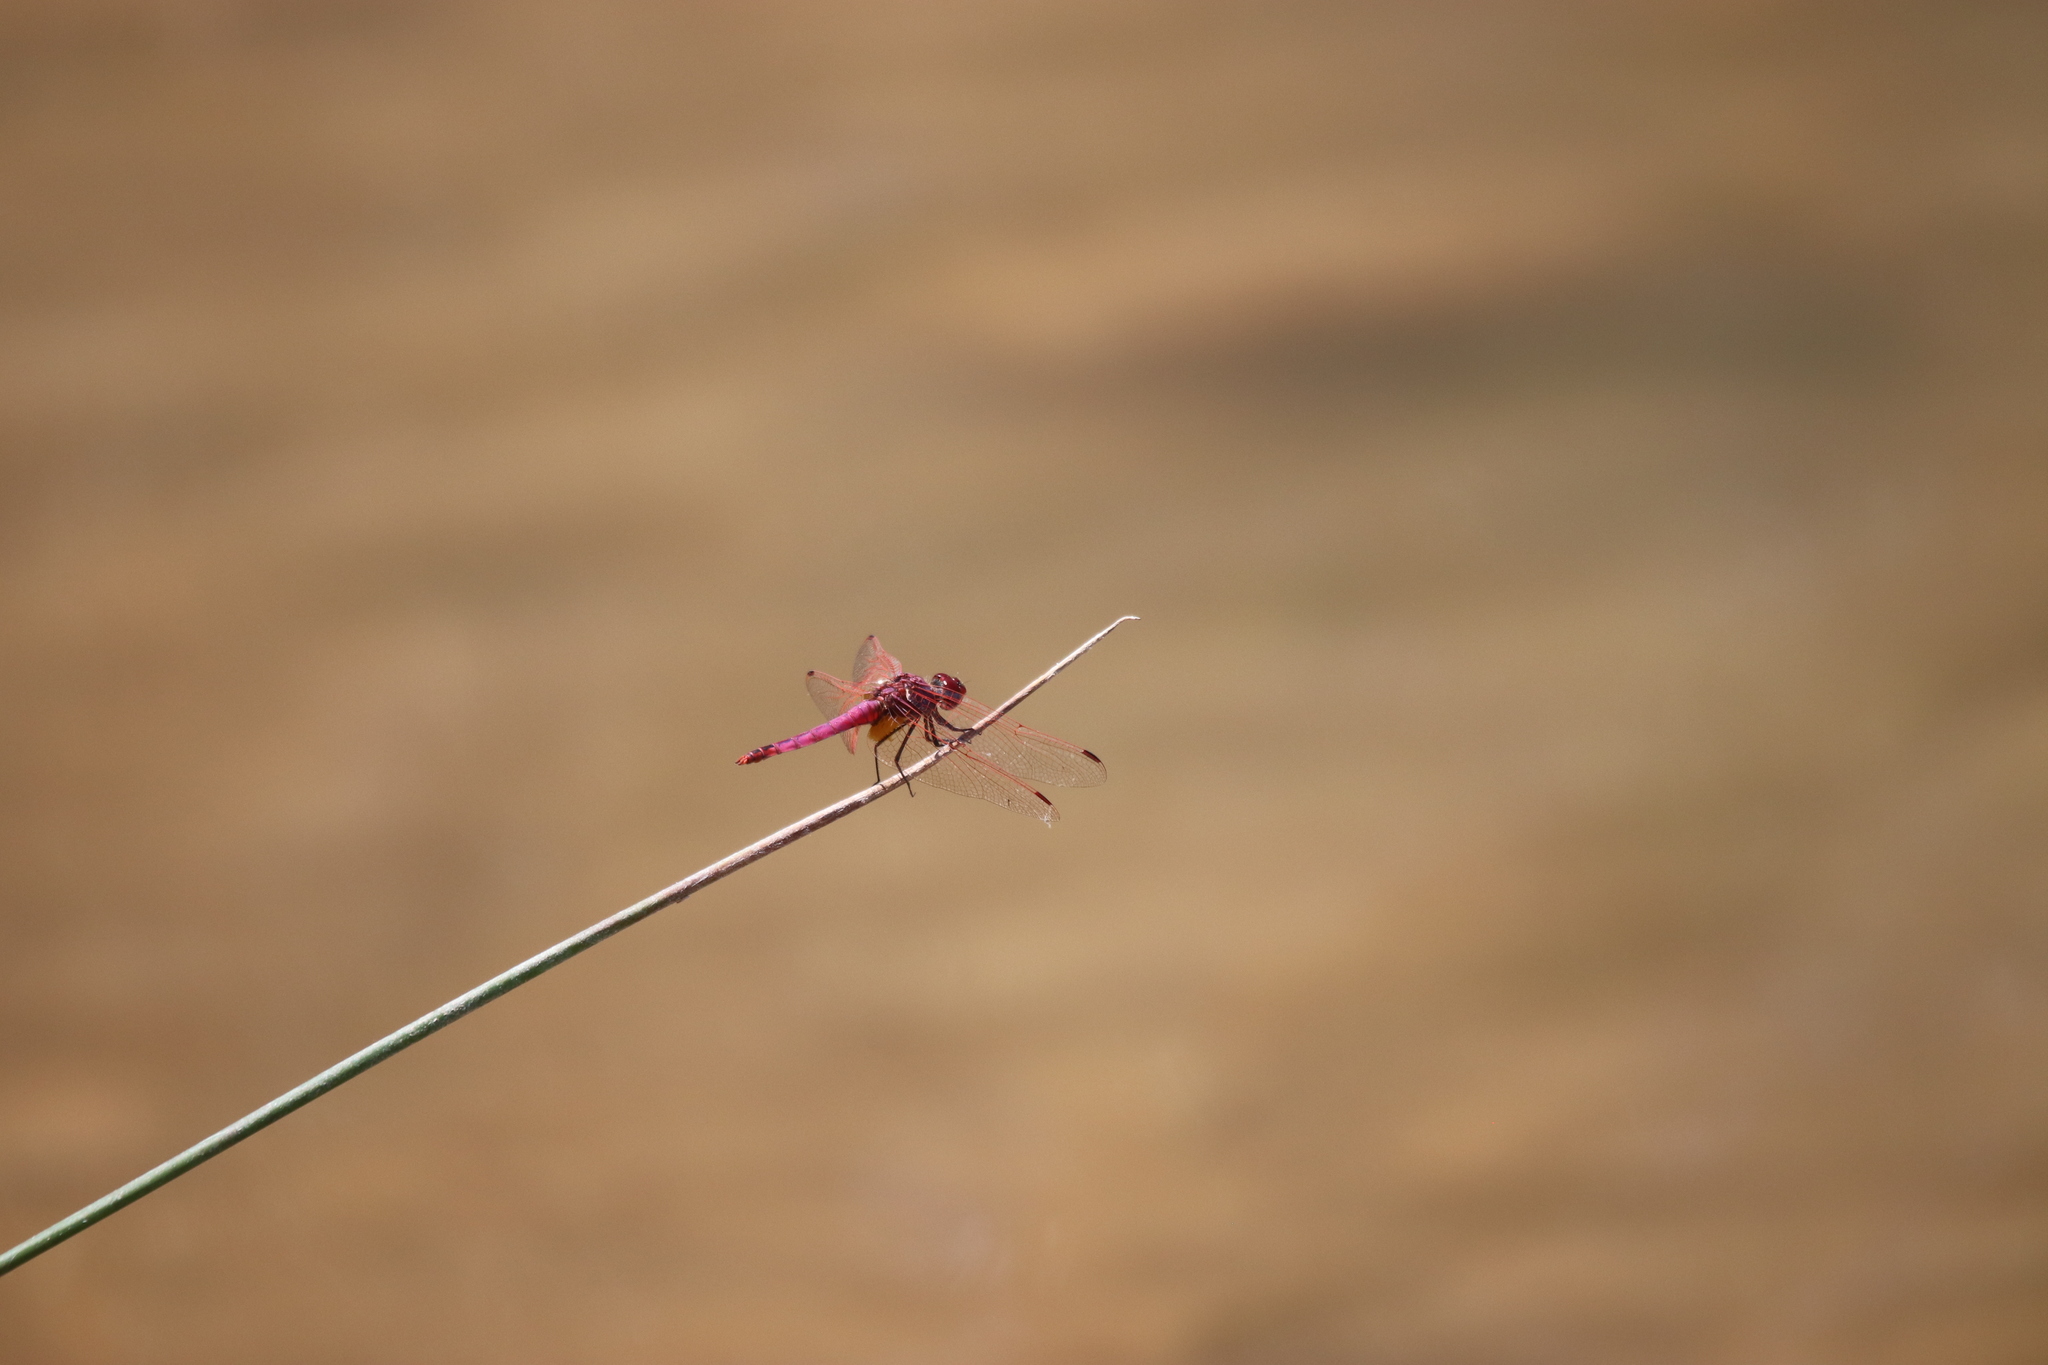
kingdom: Animalia
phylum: Arthropoda
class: Insecta
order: Odonata
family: Libellulidae
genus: Trithemis
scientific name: Trithemis annulata
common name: Violet dropwing
